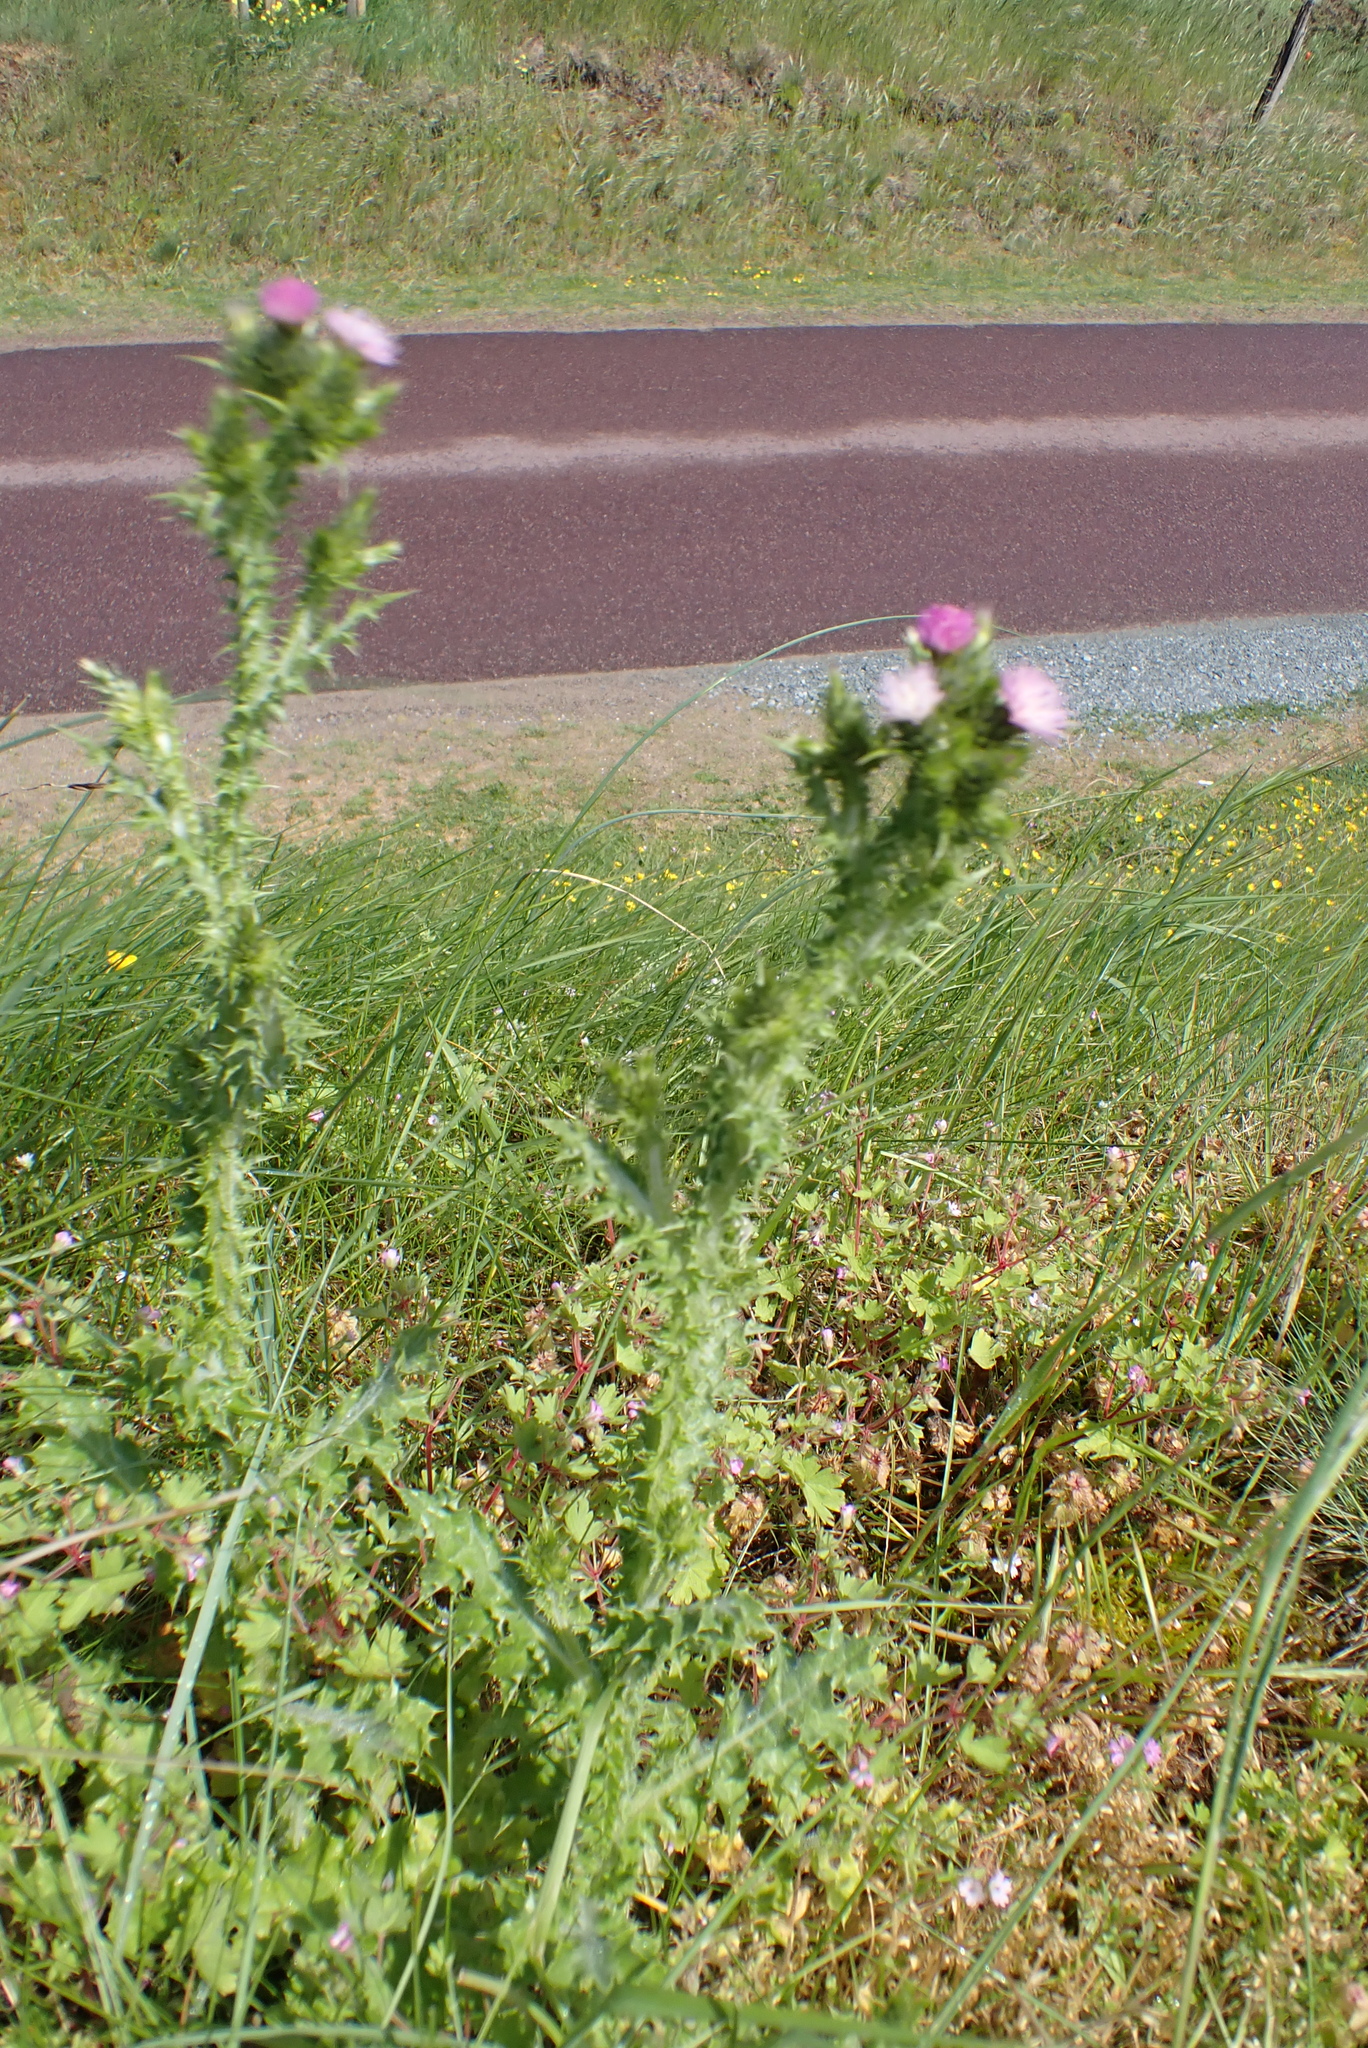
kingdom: Plantae
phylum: Tracheophyta
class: Magnoliopsida
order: Asterales
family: Asteraceae
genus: Carduus
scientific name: Carduus tenuiflorus
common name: Slender thistle
